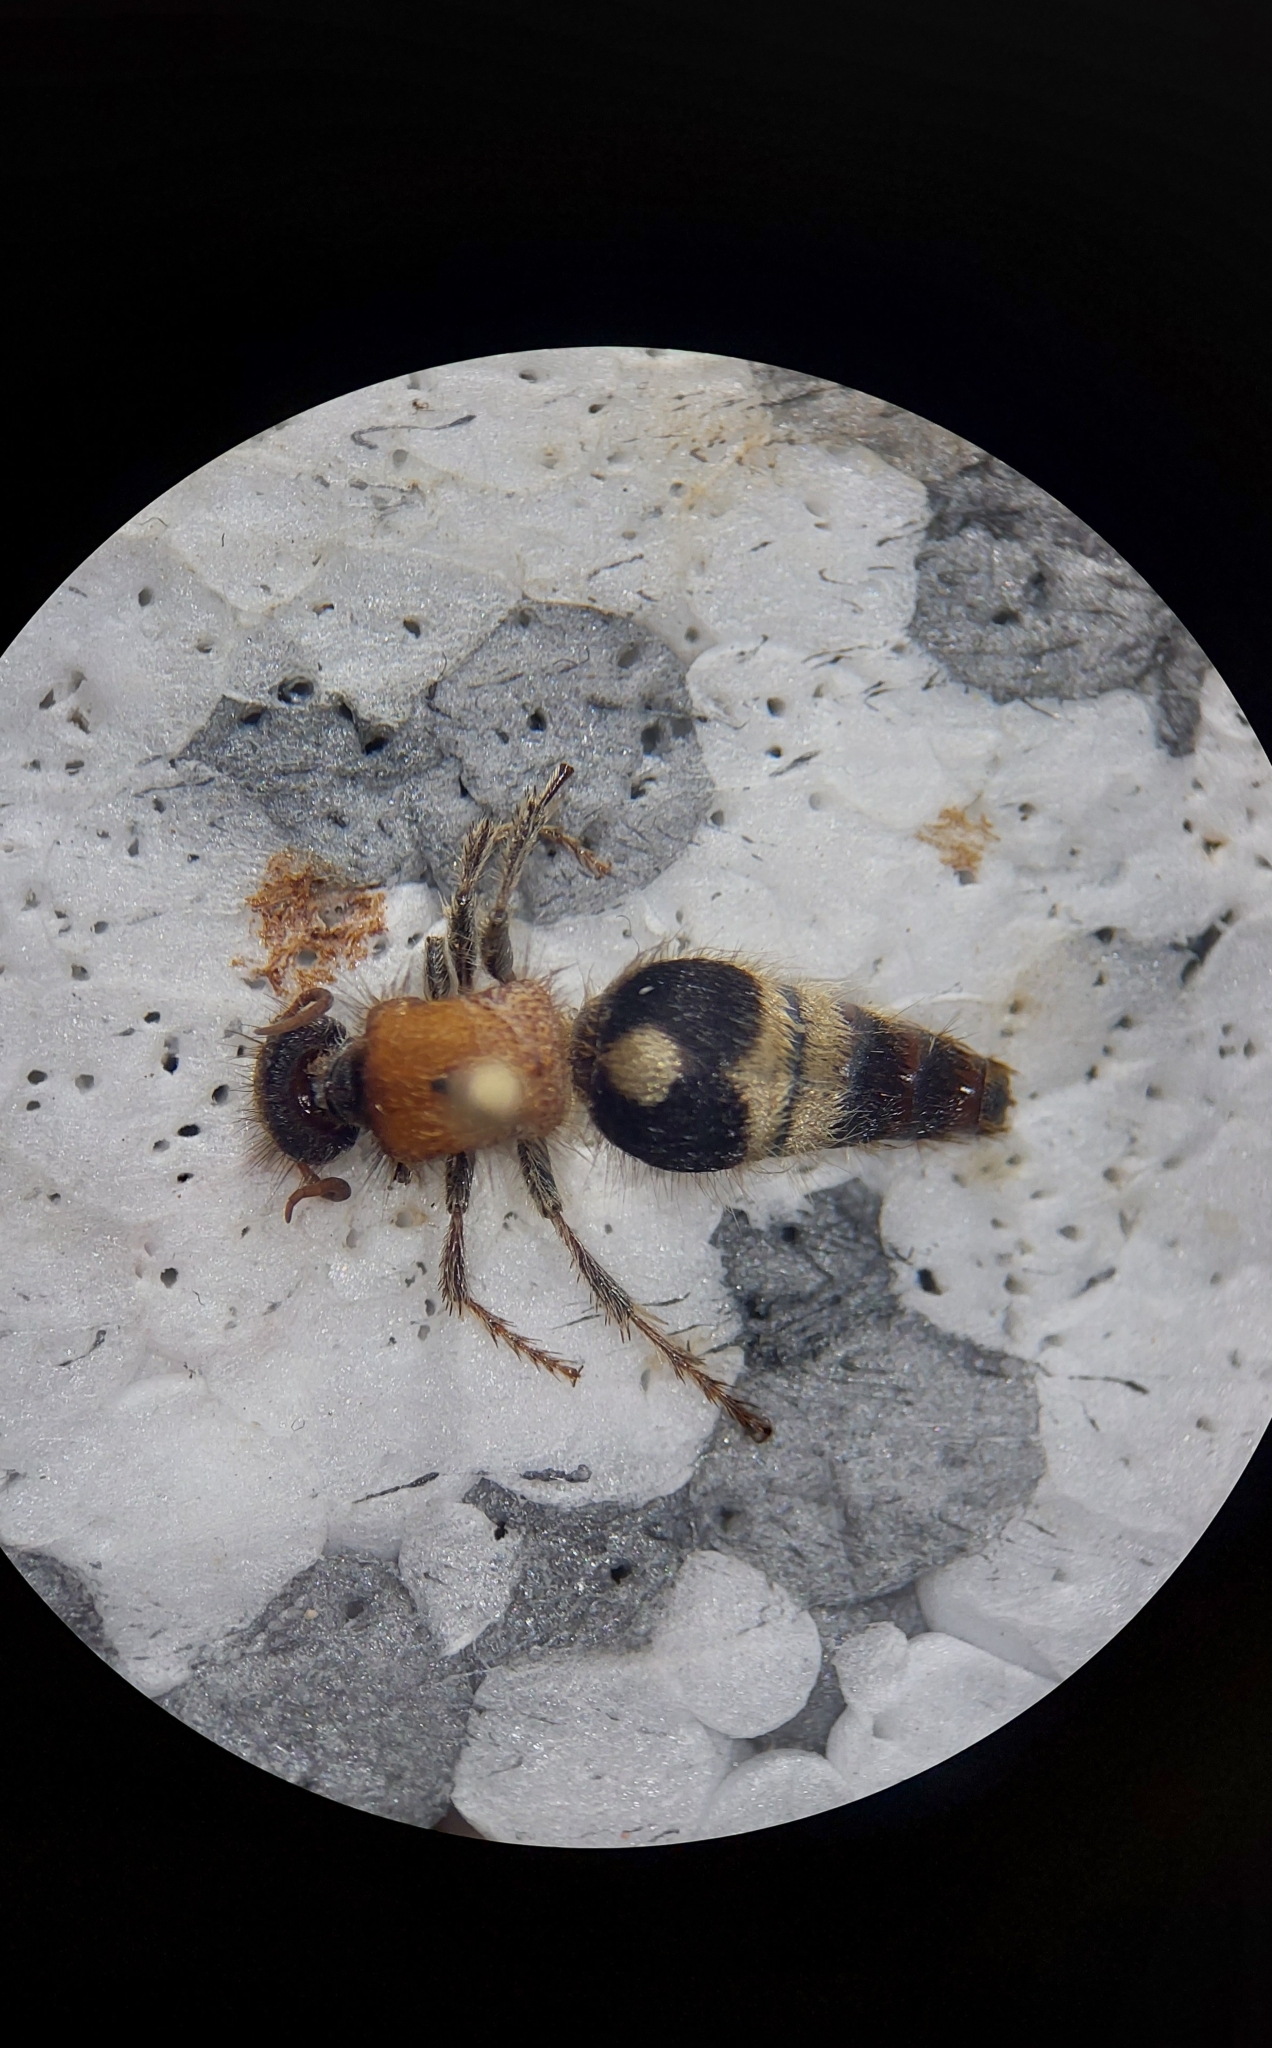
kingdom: Animalia
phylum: Arthropoda
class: Insecta
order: Hymenoptera
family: Mutillidae
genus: Nemka
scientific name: Nemka viduata
